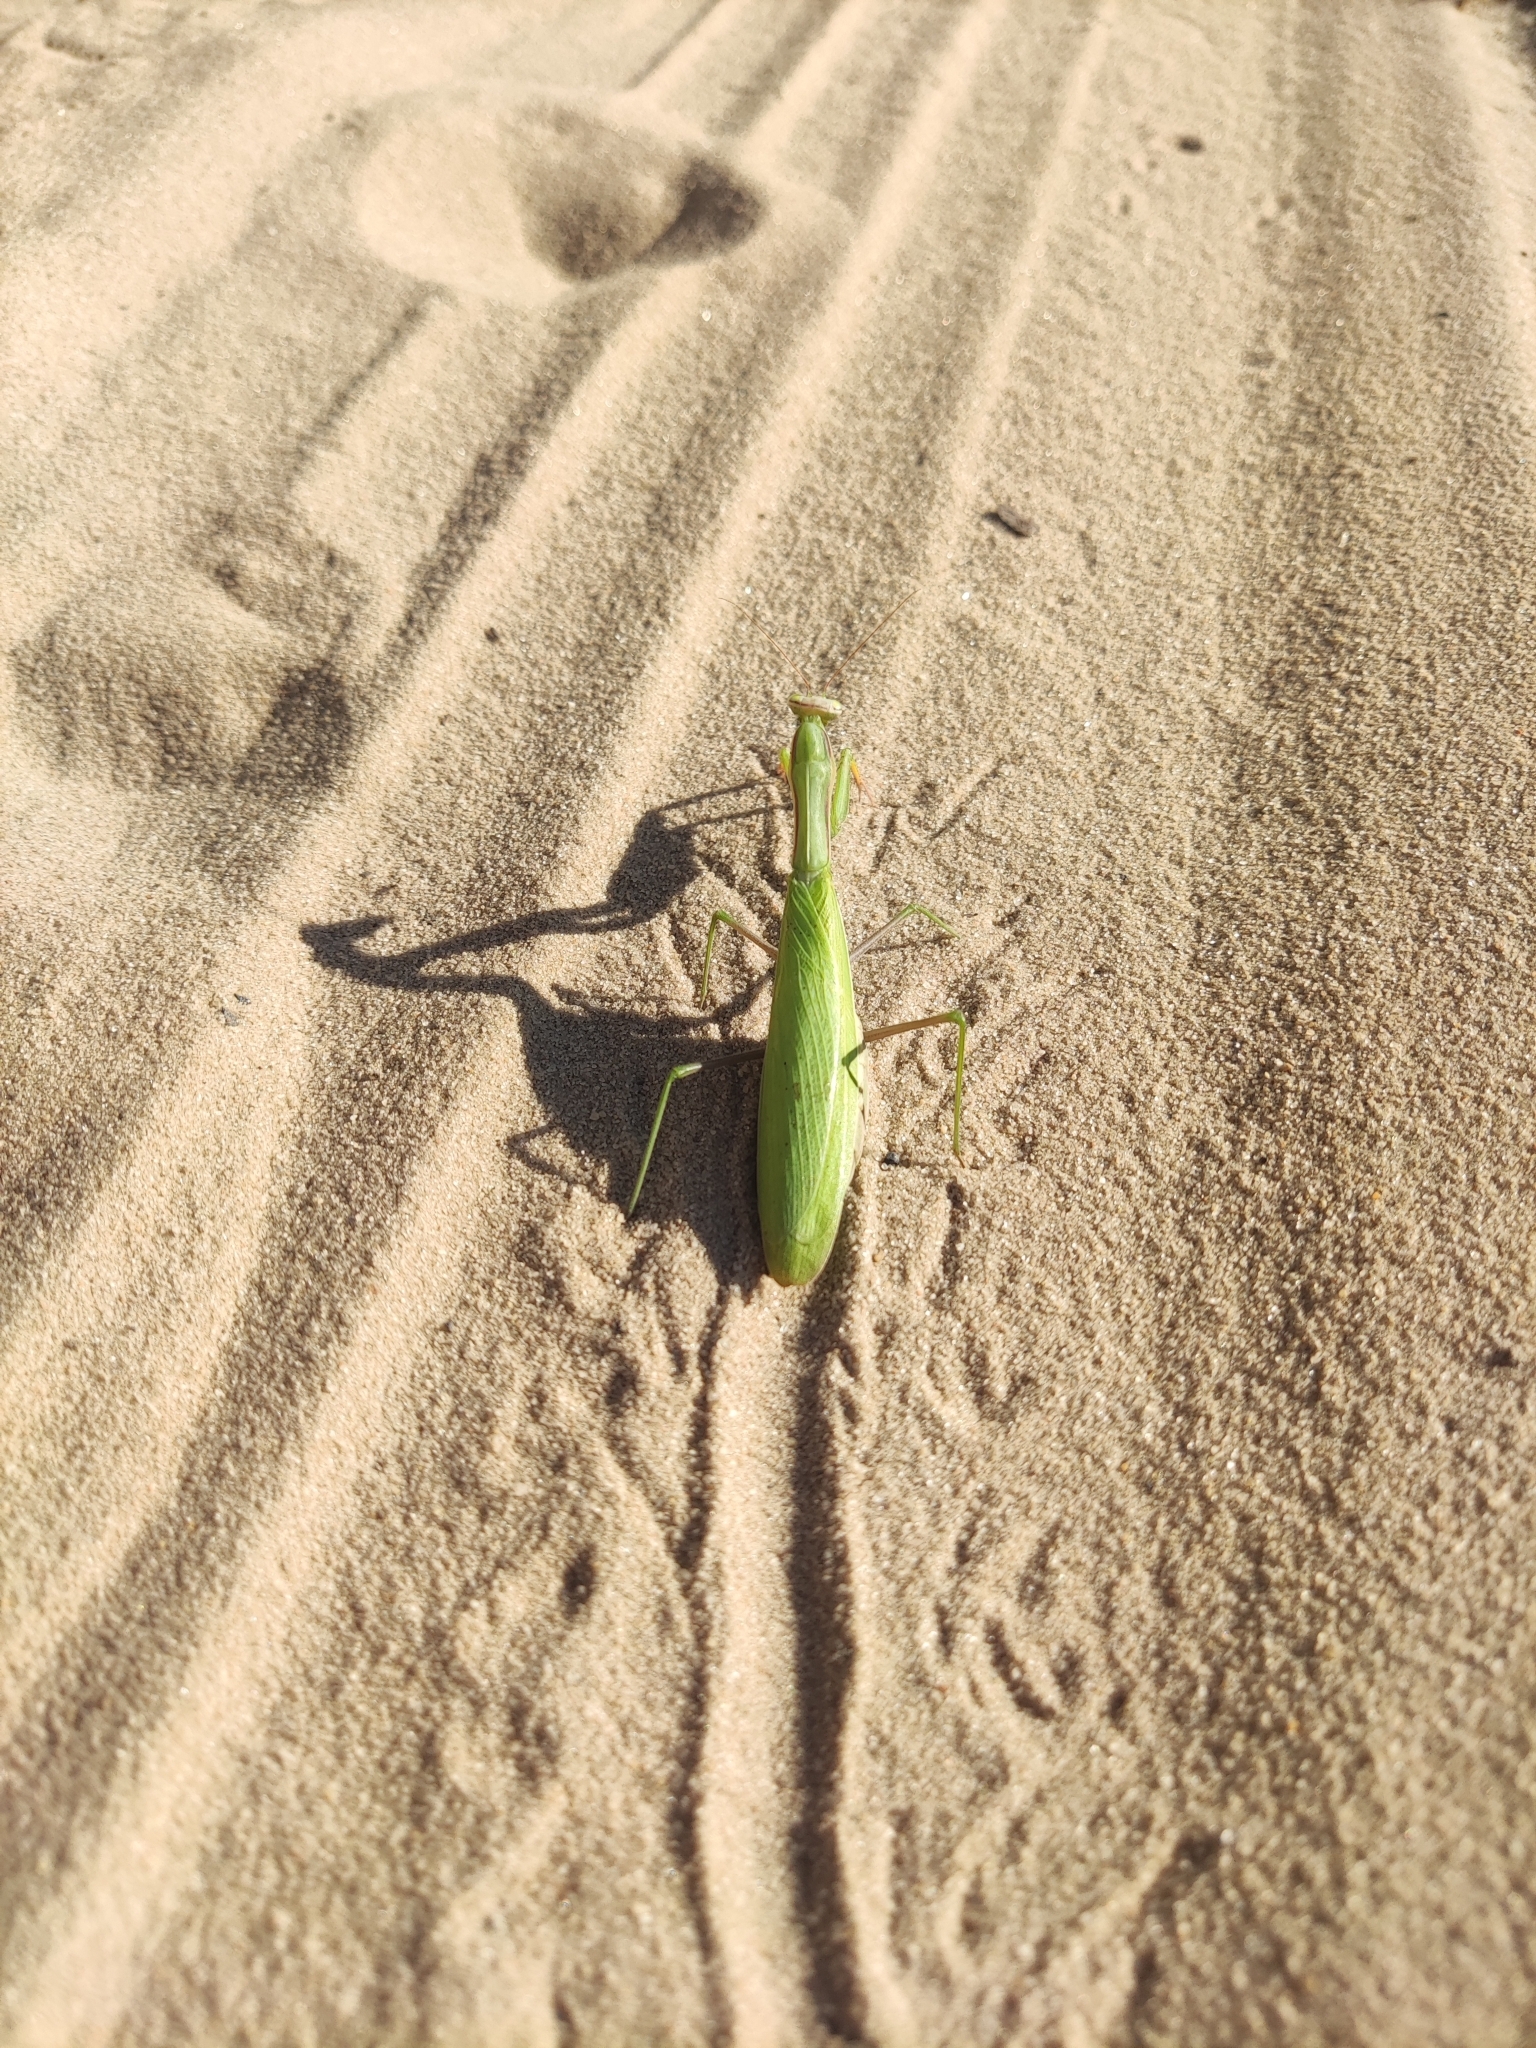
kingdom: Animalia
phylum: Arthropoda
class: Insecta
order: Mantodea
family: Mantidae
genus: Mantis
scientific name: Mantis religiosa
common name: Praying mantis
